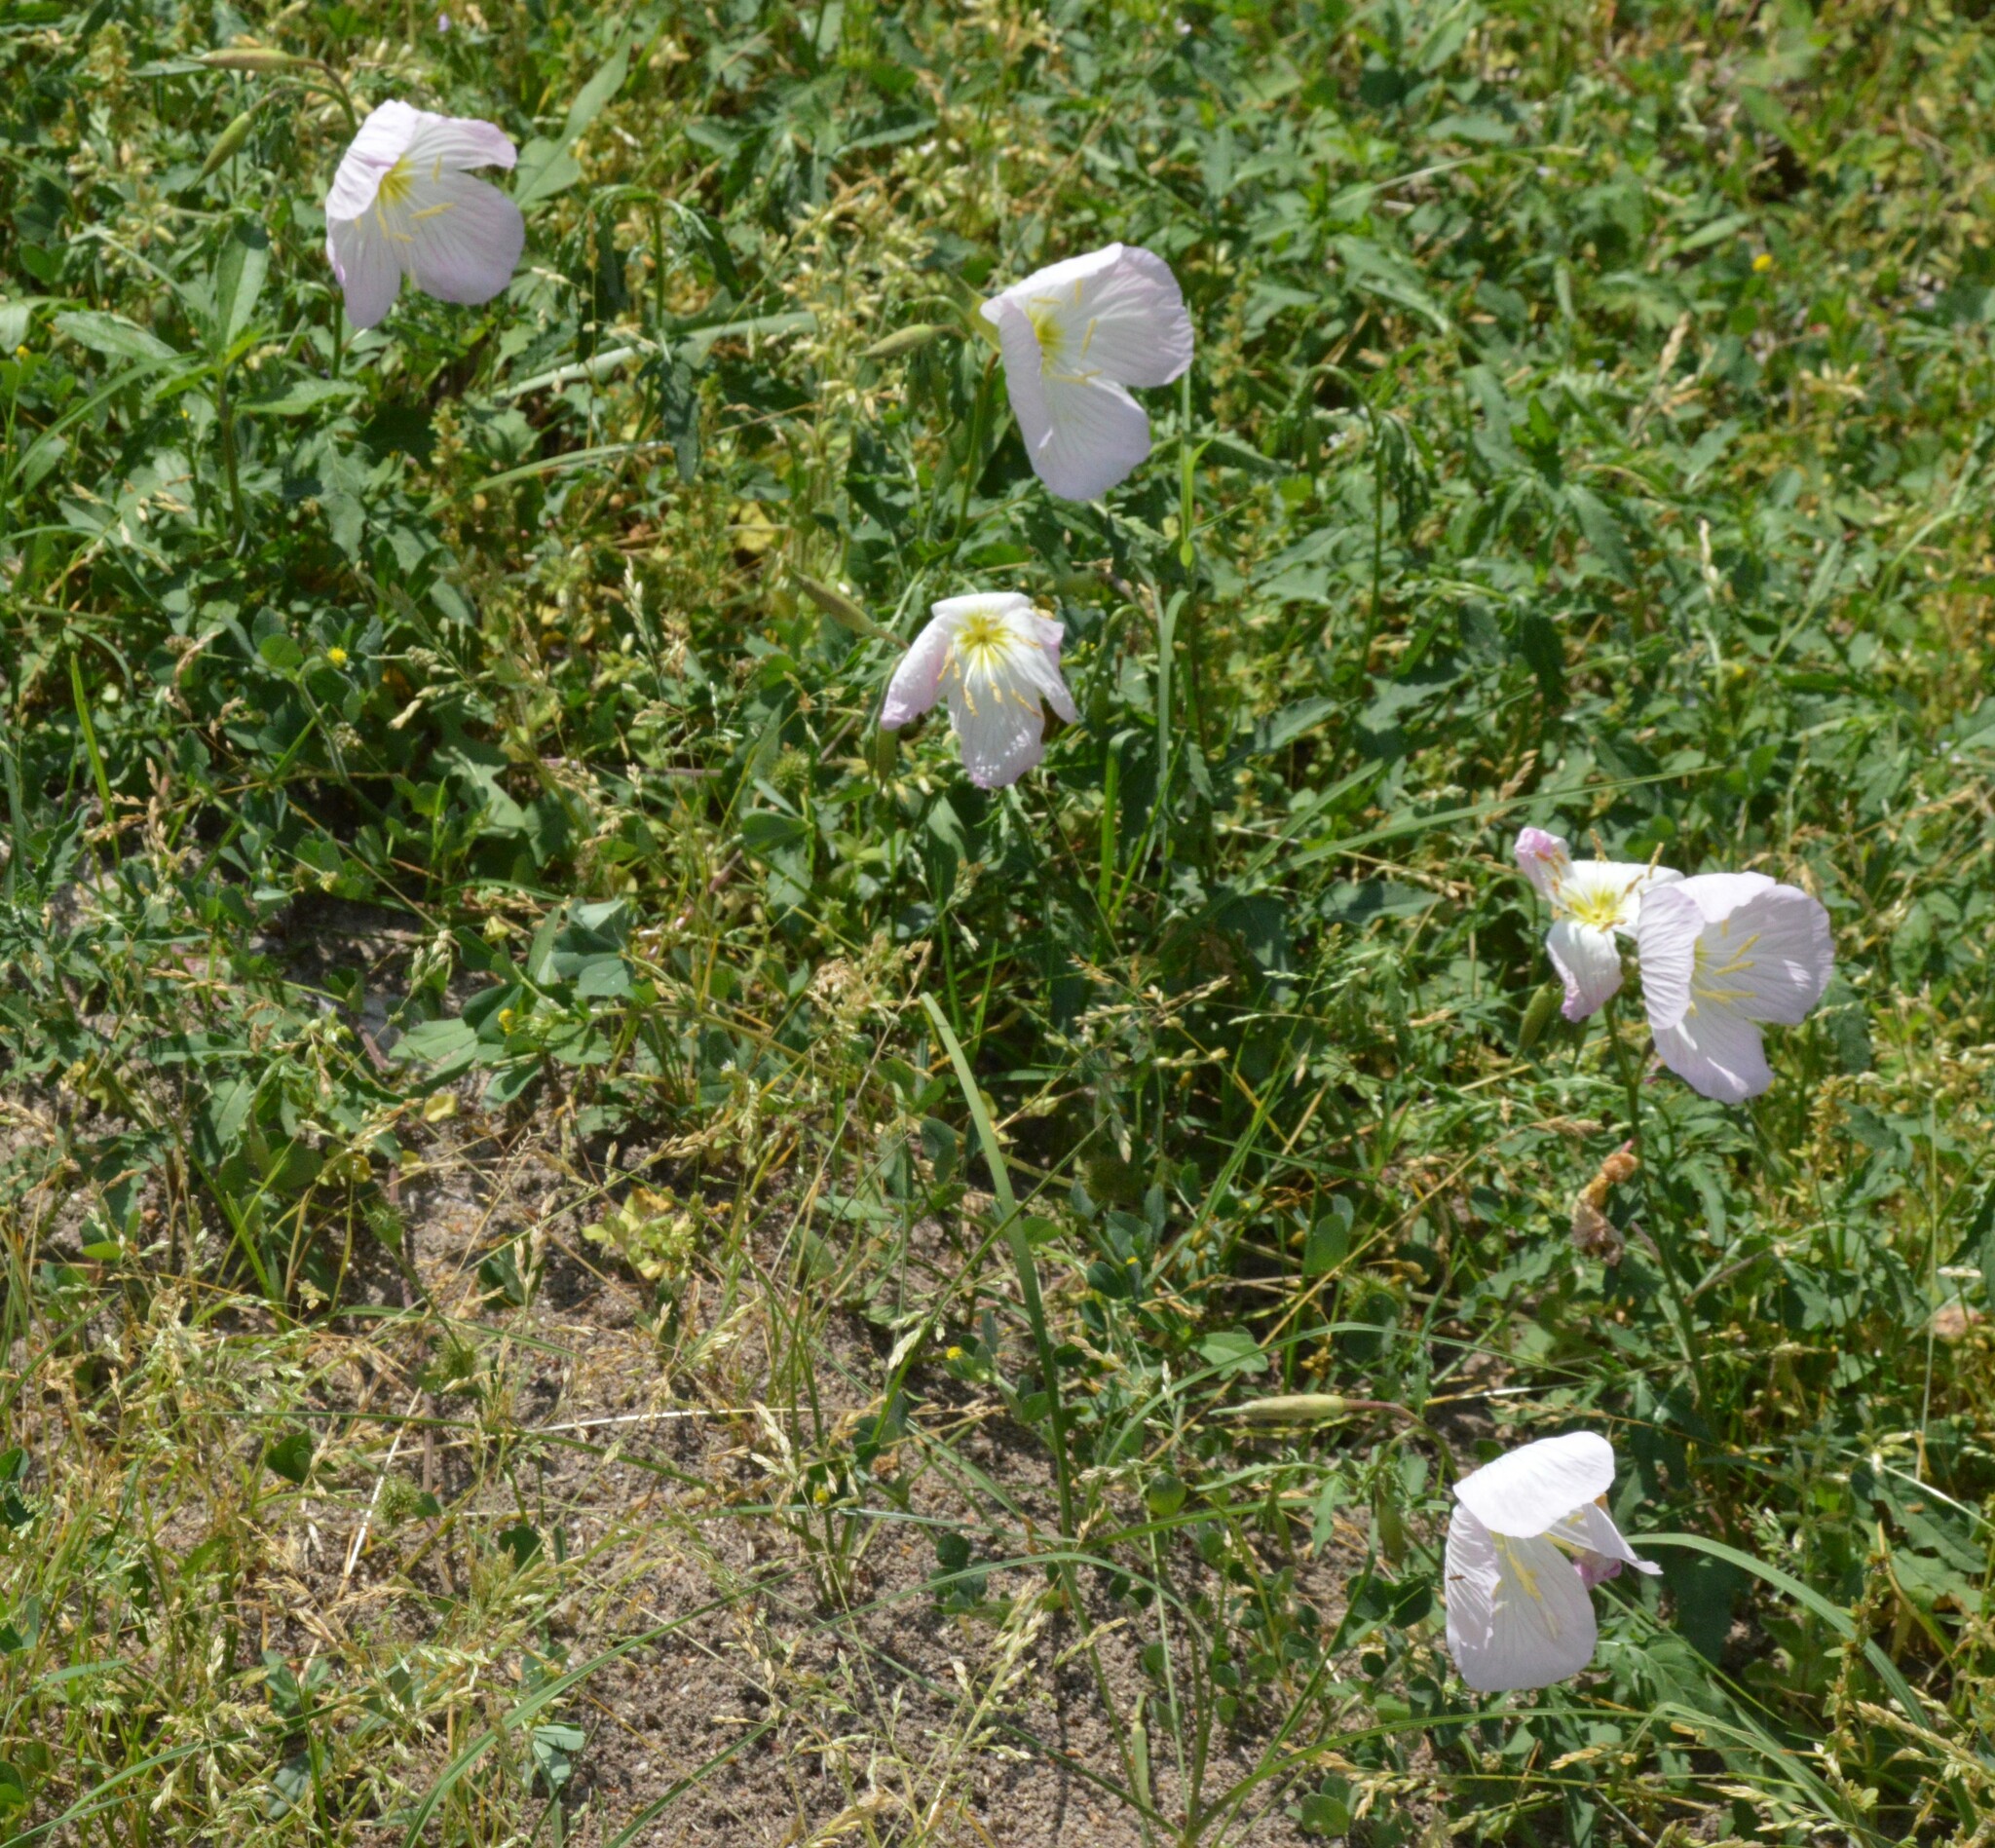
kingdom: Plantae
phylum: Tracheophyta
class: Magnoliopsida
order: Myrtales
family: Onagraceae
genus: Oenothera
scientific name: Oenothera speciosa
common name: White evening-primrose
